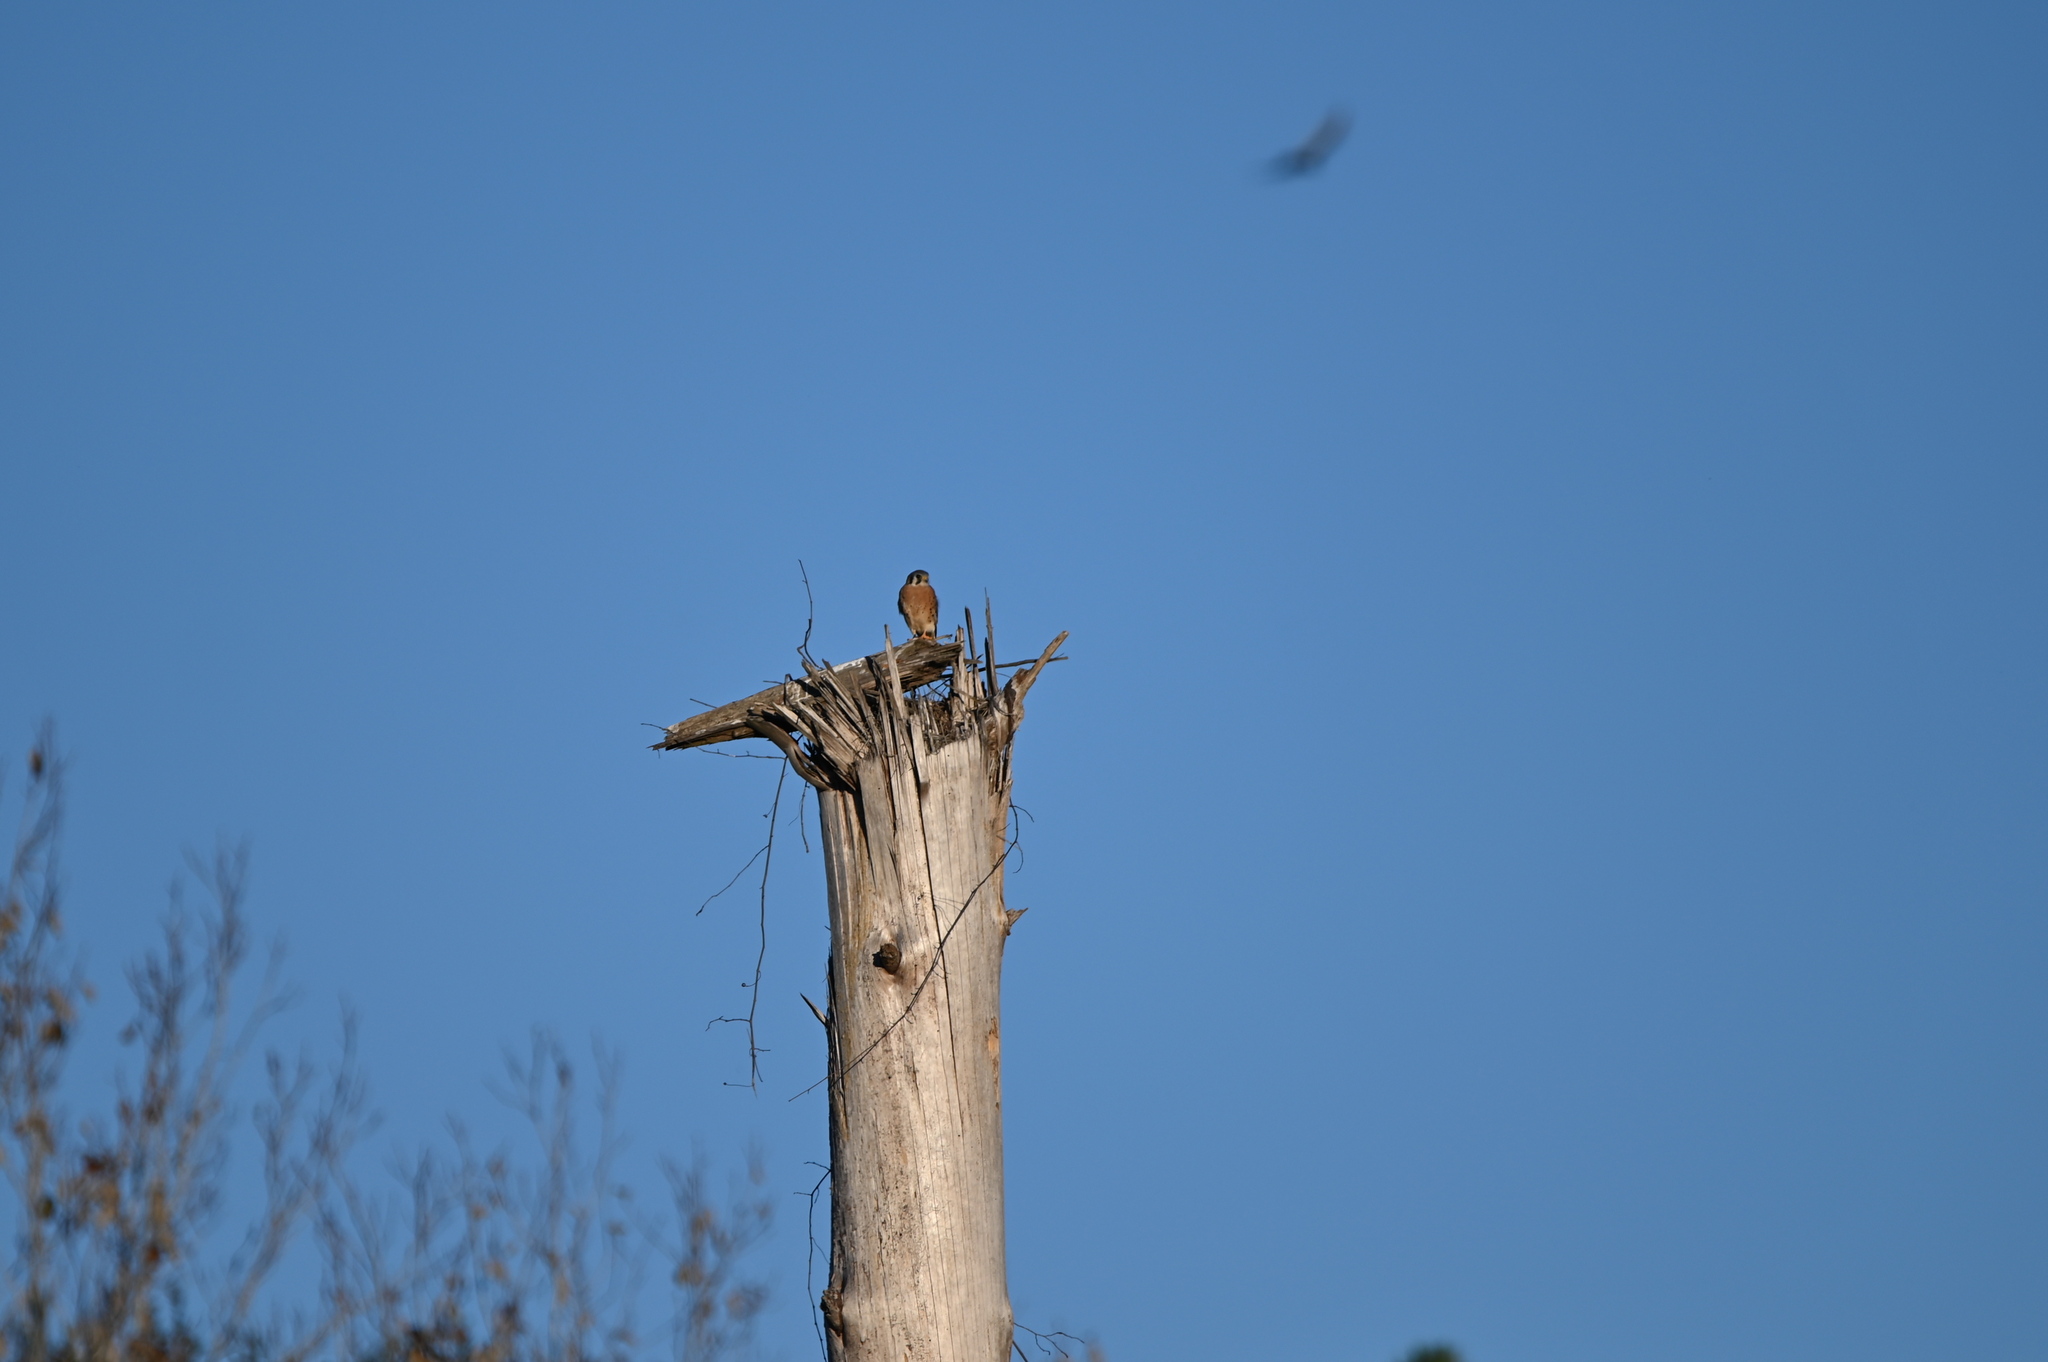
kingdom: Animalia
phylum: Chordata
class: Aves
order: Falconiformes
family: Falconidae
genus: Falco
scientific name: Falco sparverius
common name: American kestrel
